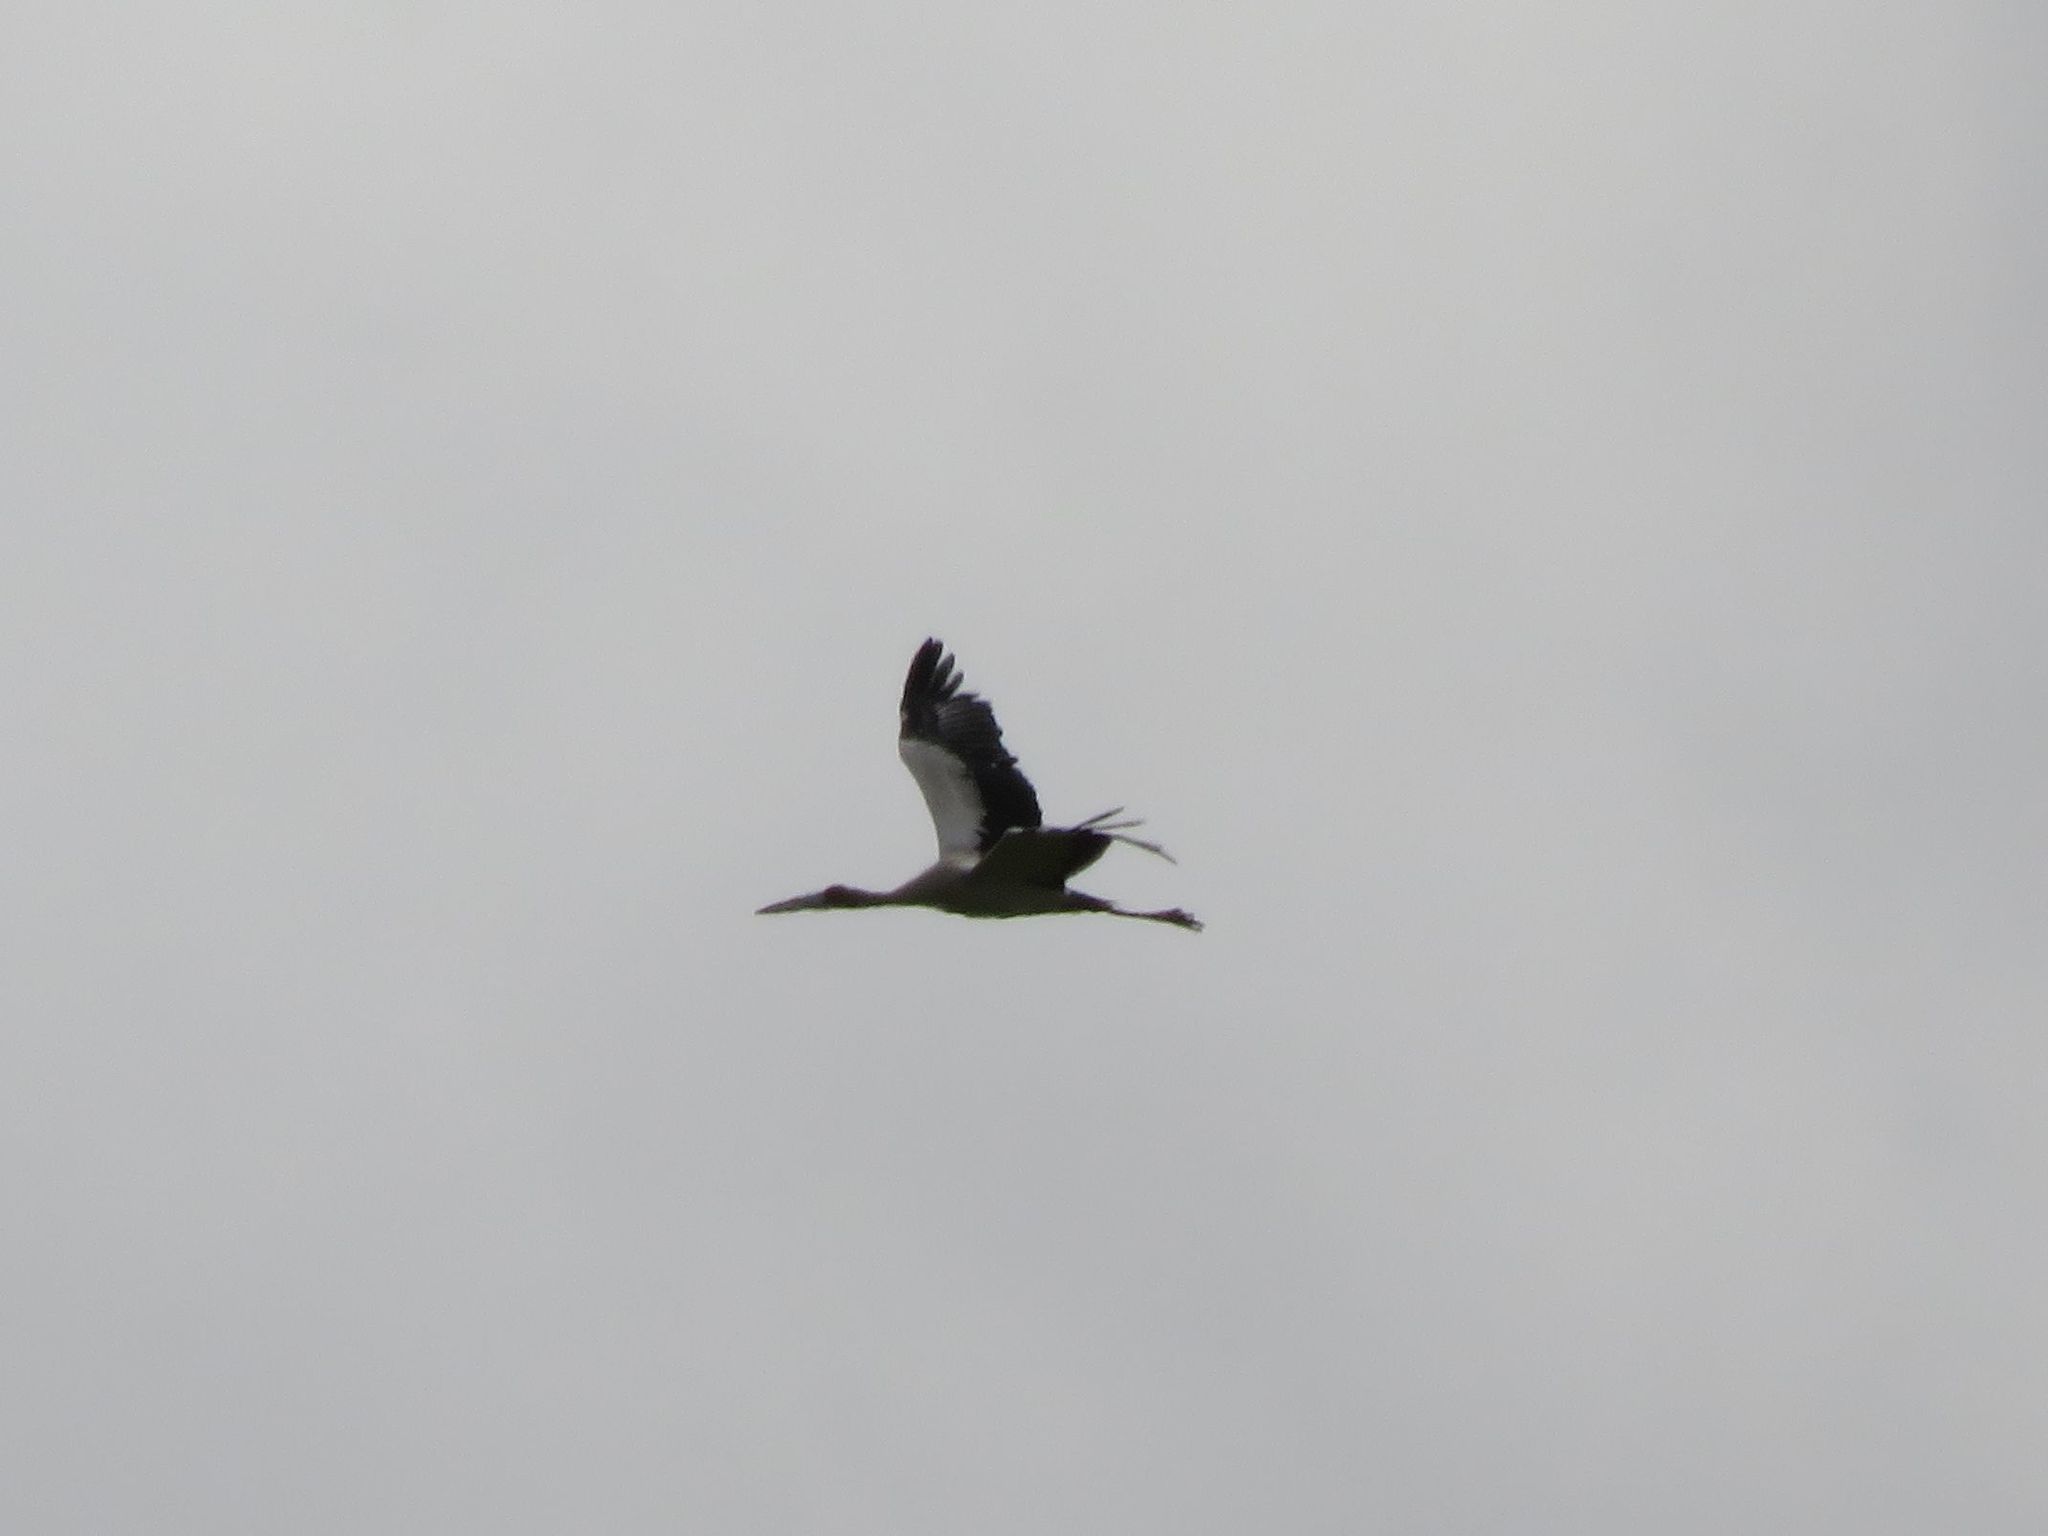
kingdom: Animalia
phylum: Chordata
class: Aves
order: Ciconiiformes
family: Ciconiidae
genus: Ciconia
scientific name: Ciconia maguari
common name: Maguari stork
